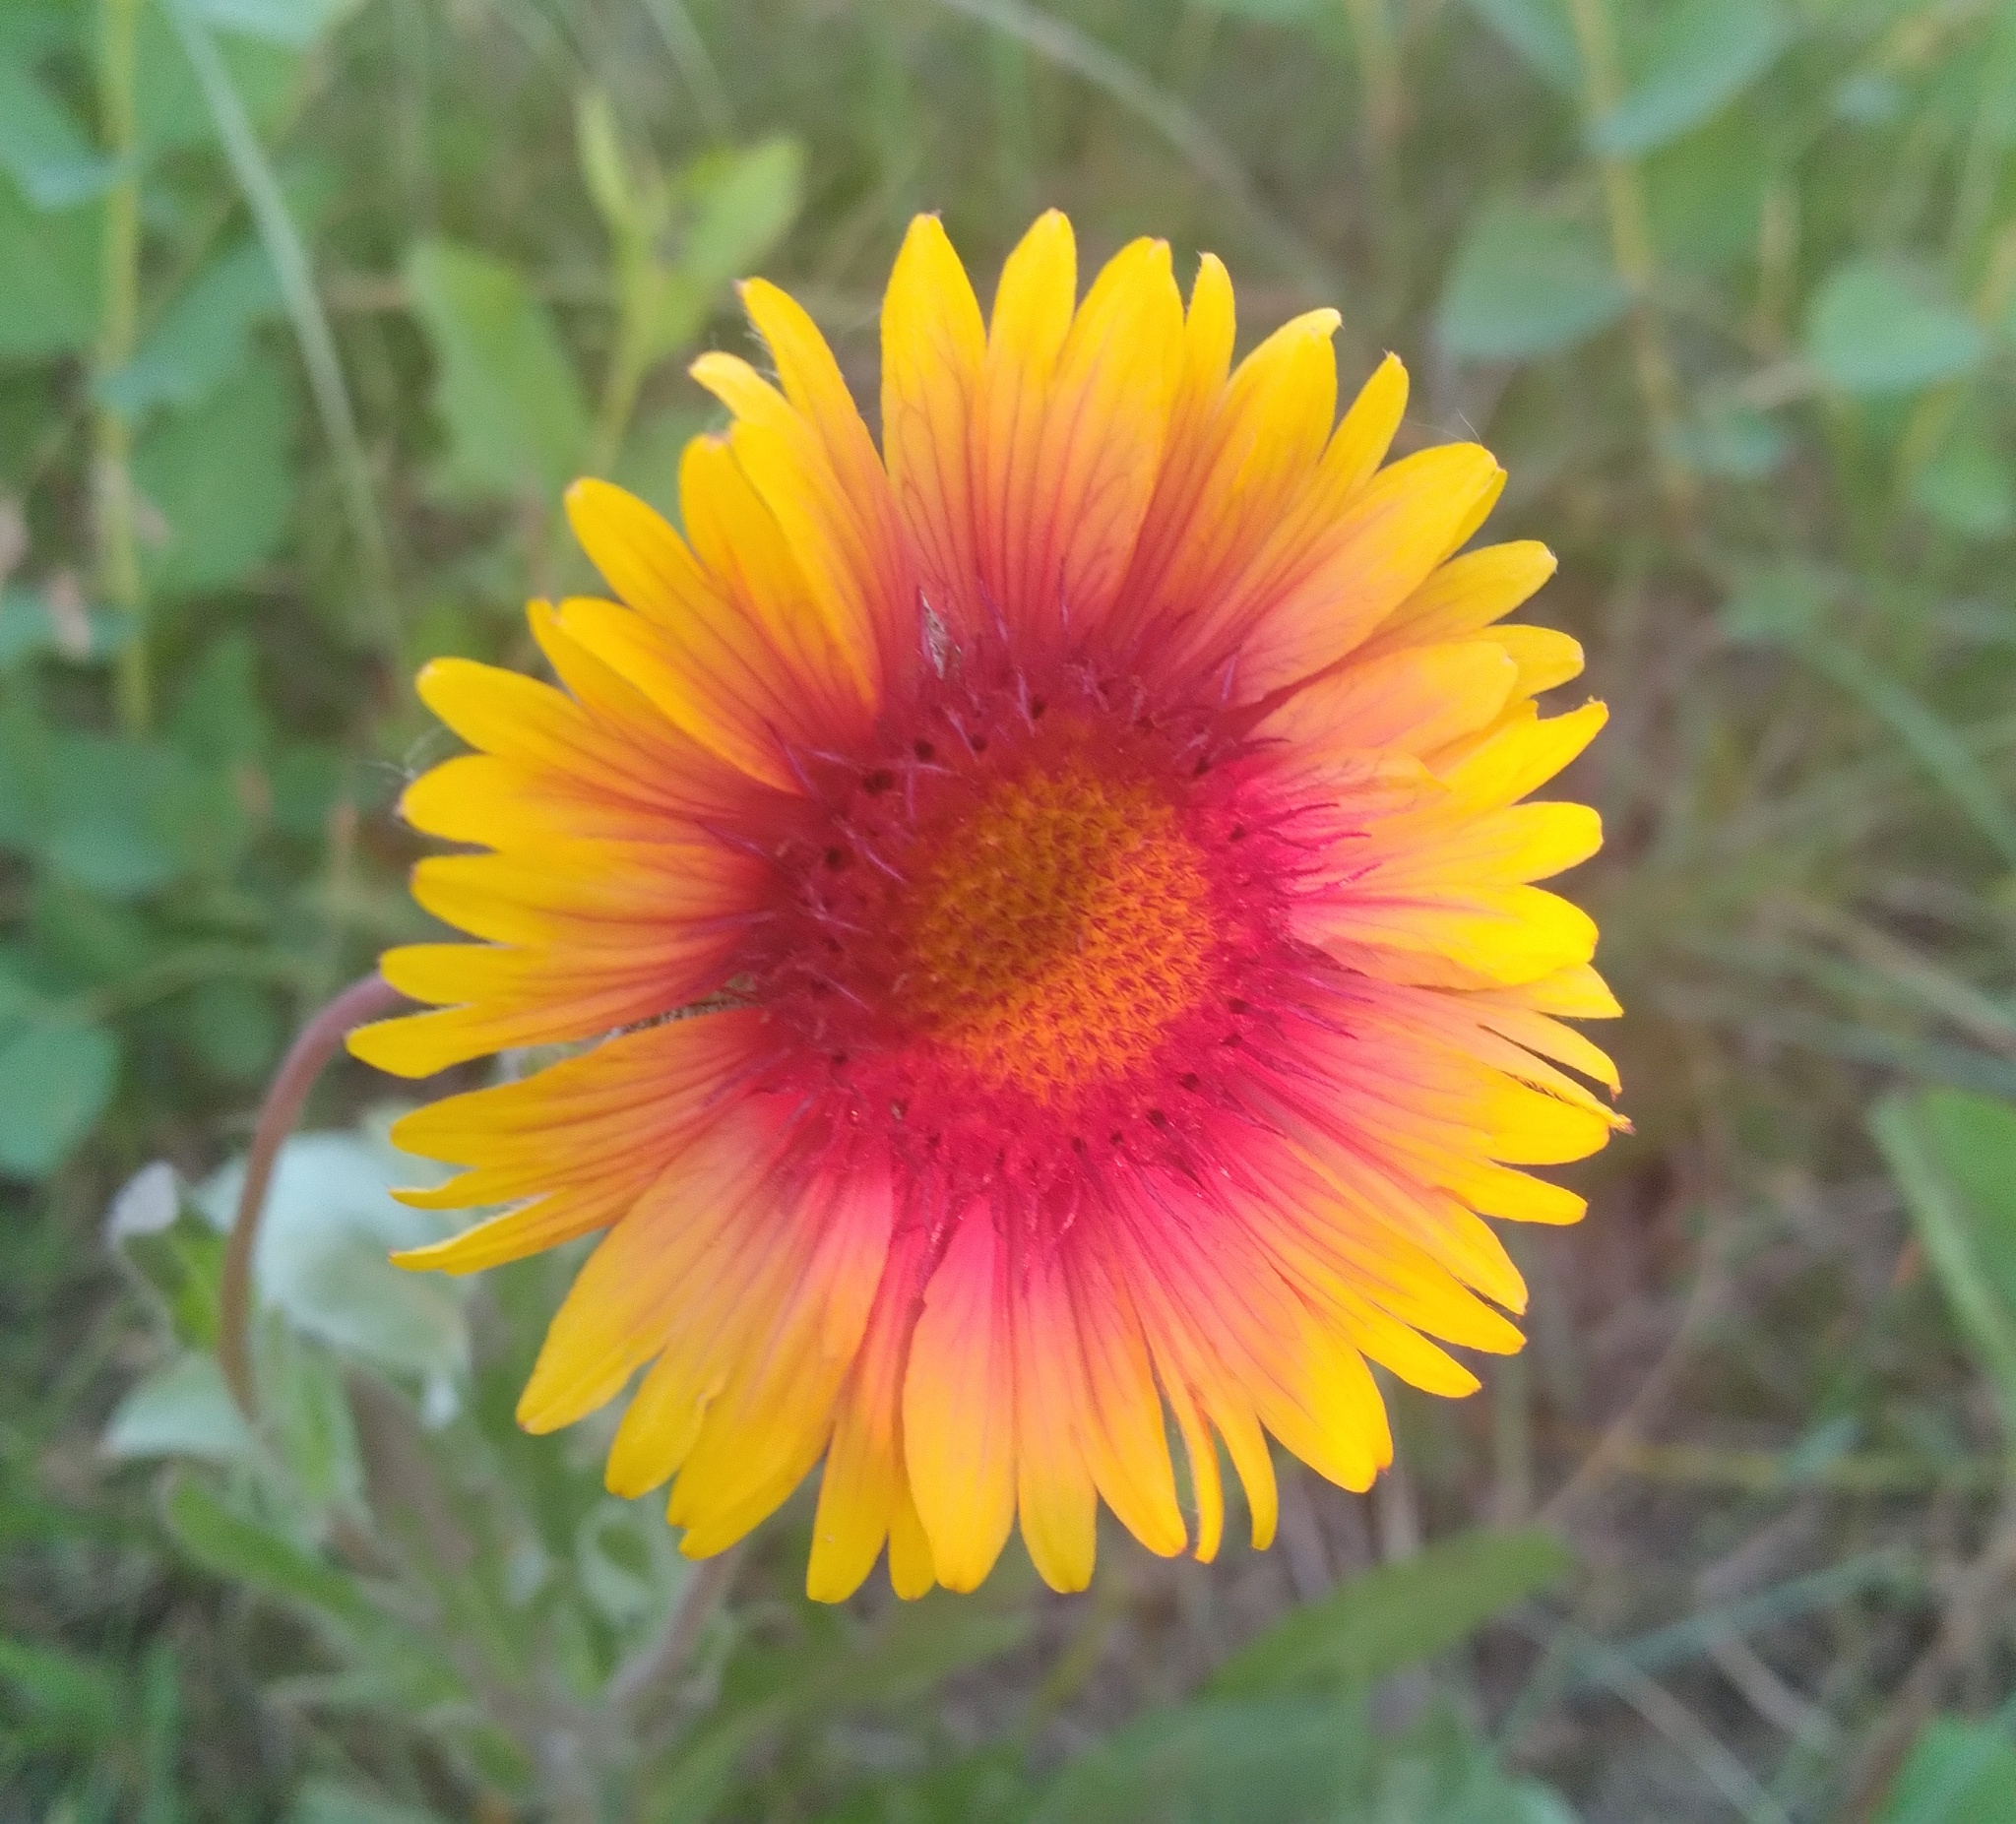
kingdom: Plantae
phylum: Tracheophyta
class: Magnoliopsida
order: Asterales
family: Asteraceae
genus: Gaillardia
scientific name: Gaillardia aristata
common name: Blanket-flower
